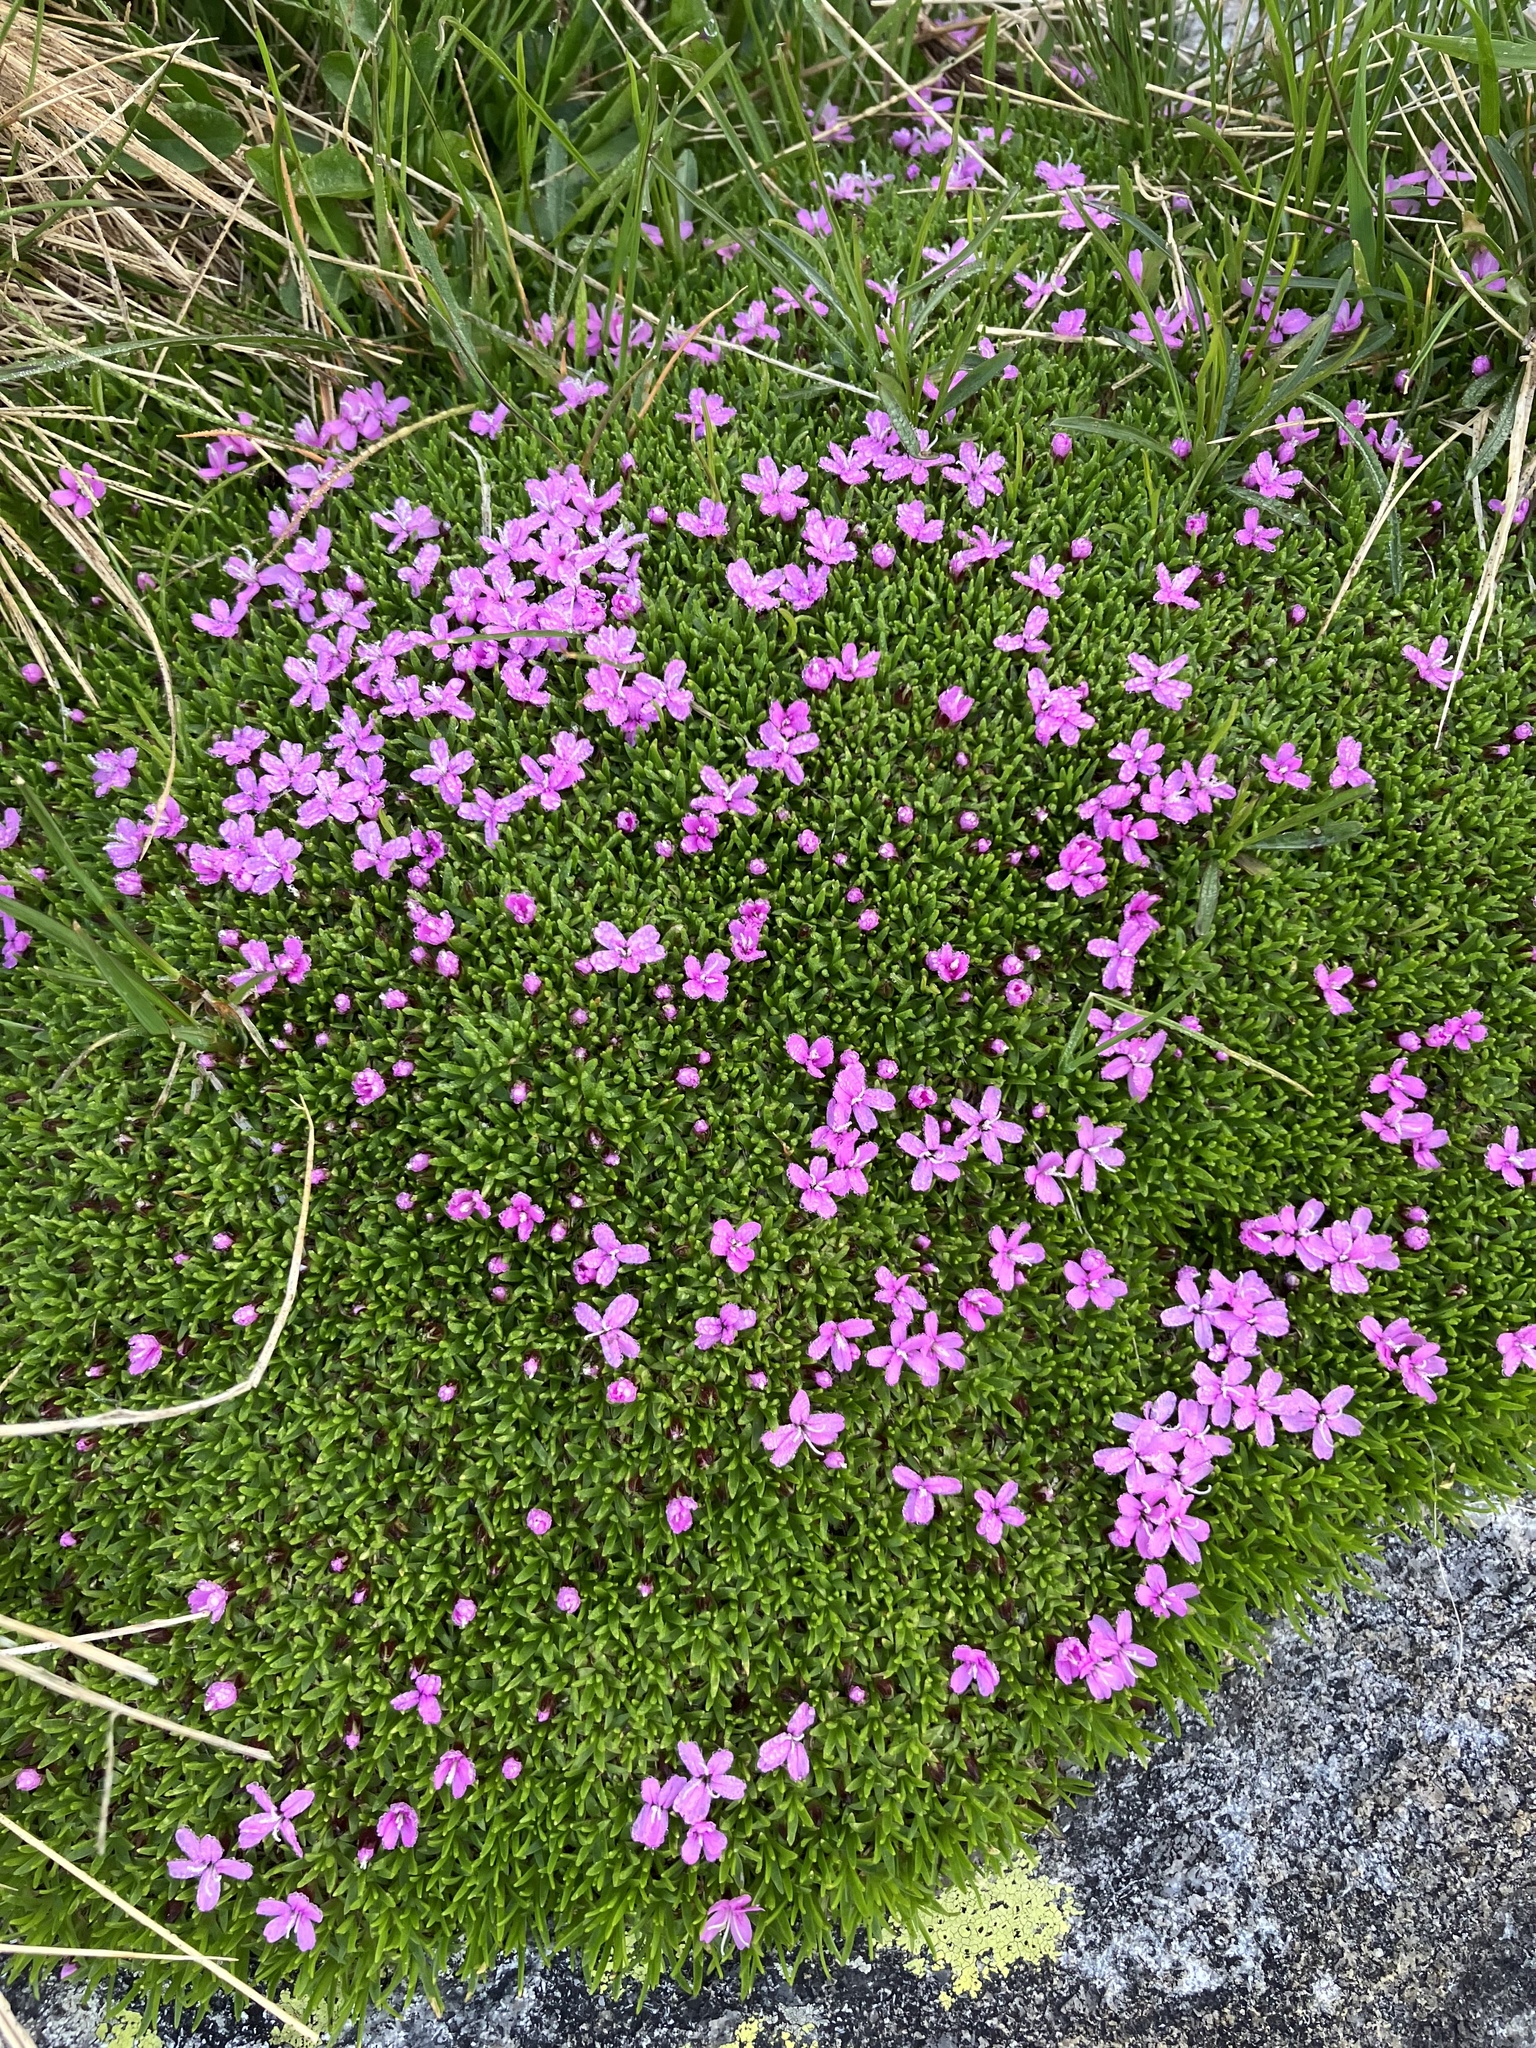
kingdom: Plantae
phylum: Tracheophyta
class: Magnoliopsida
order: Caryophyllales
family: Caryophyllaceae
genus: Silene
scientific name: Silene acaulis
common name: Moss campion
